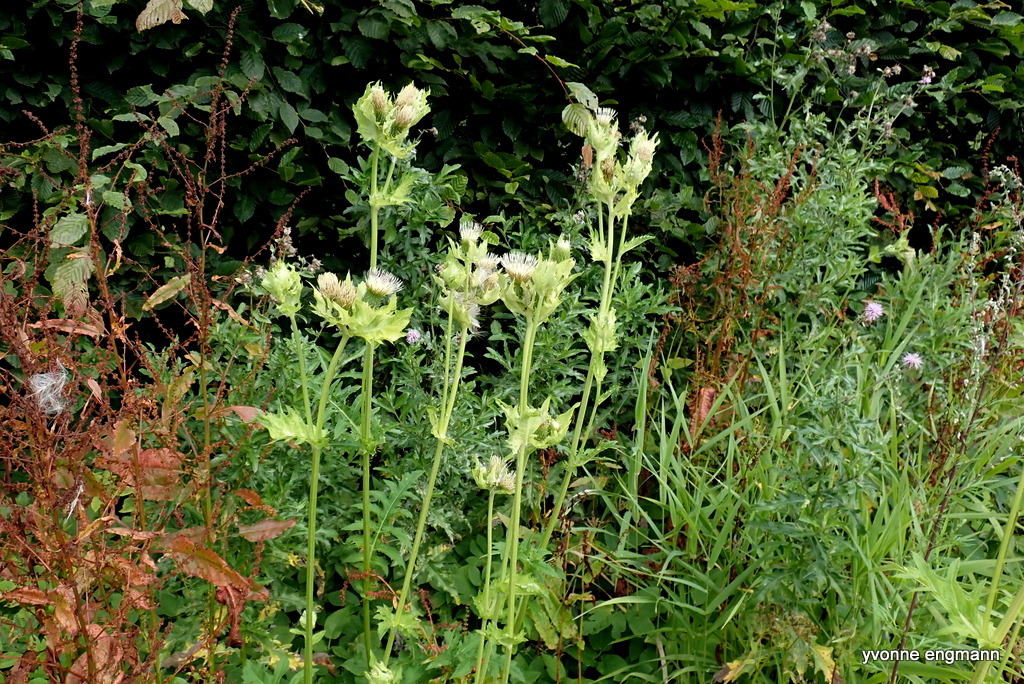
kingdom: Plantae
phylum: Tracheophyta
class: Magnoliopsida
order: Asterales
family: Asteraceae
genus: Cirsium
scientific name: Cirsium oleraceum
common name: Cabbage thistle
